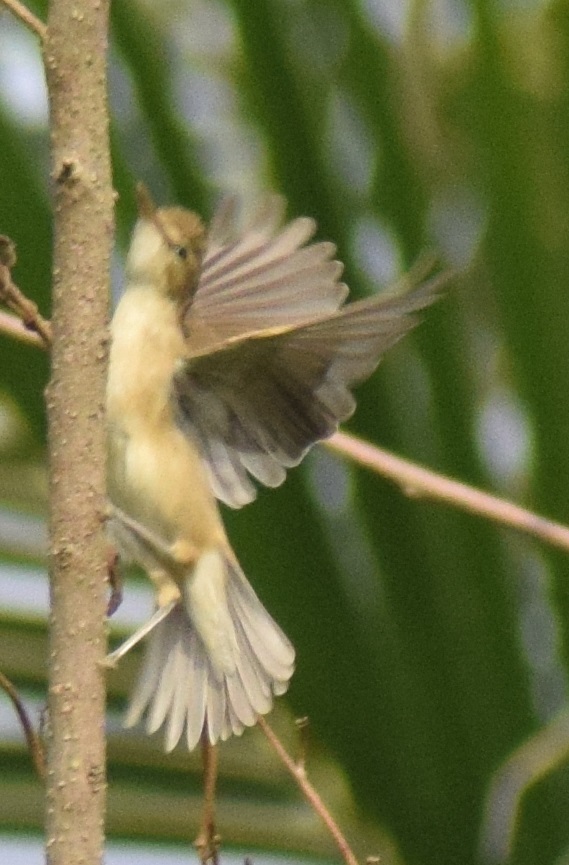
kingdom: Animalia
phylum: Chordata
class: Aves
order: Passeriformes
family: Acrocephalidae
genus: Acrocephalus
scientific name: Acrocephalus dumetorum
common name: Blyth's reed warbler
